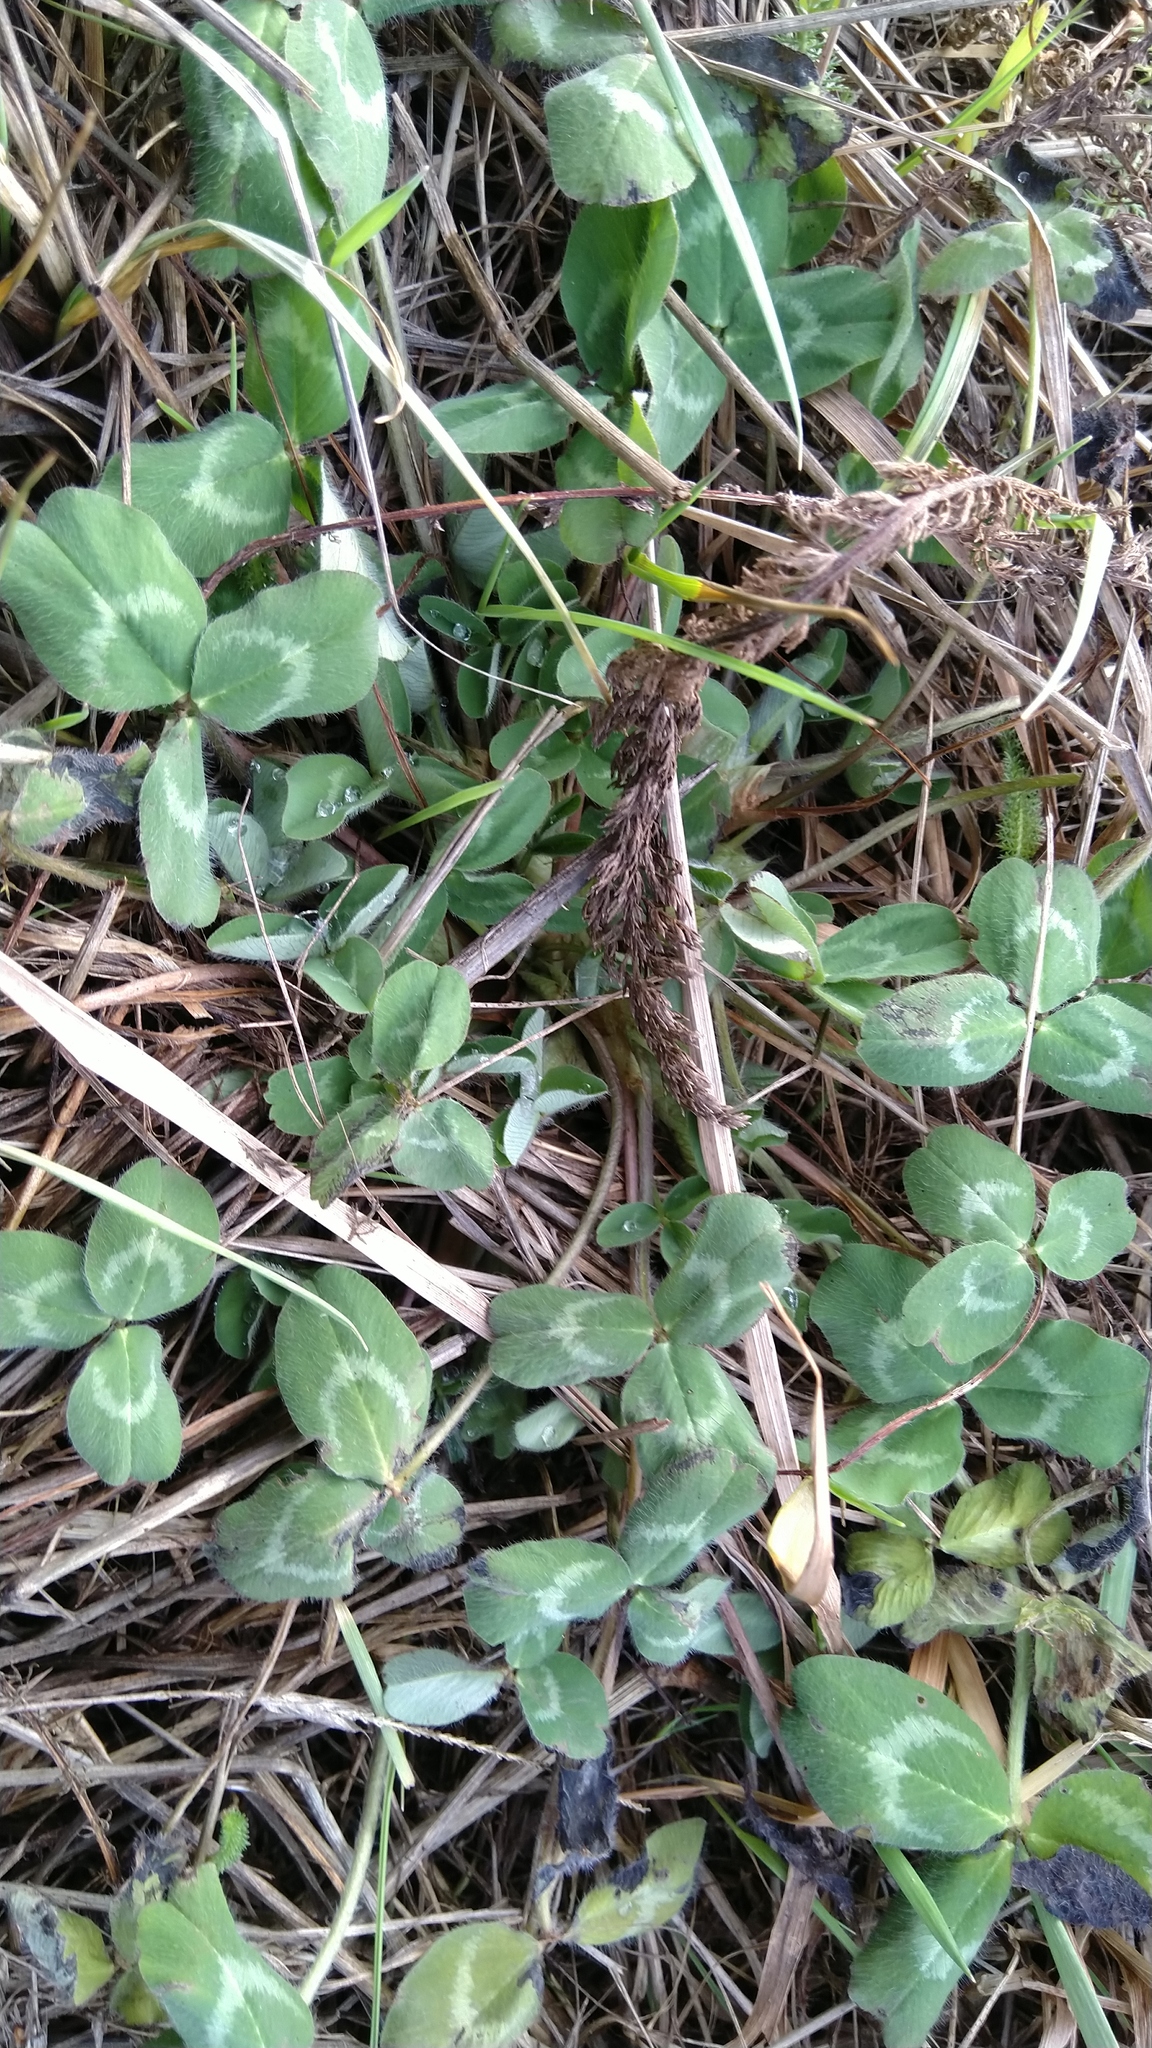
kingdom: Plantae
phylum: Tracheophyta
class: Magnoliopsida
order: Fabales
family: Fabaceae
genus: Trifolium
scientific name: Trifolium pratense
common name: Red clover
